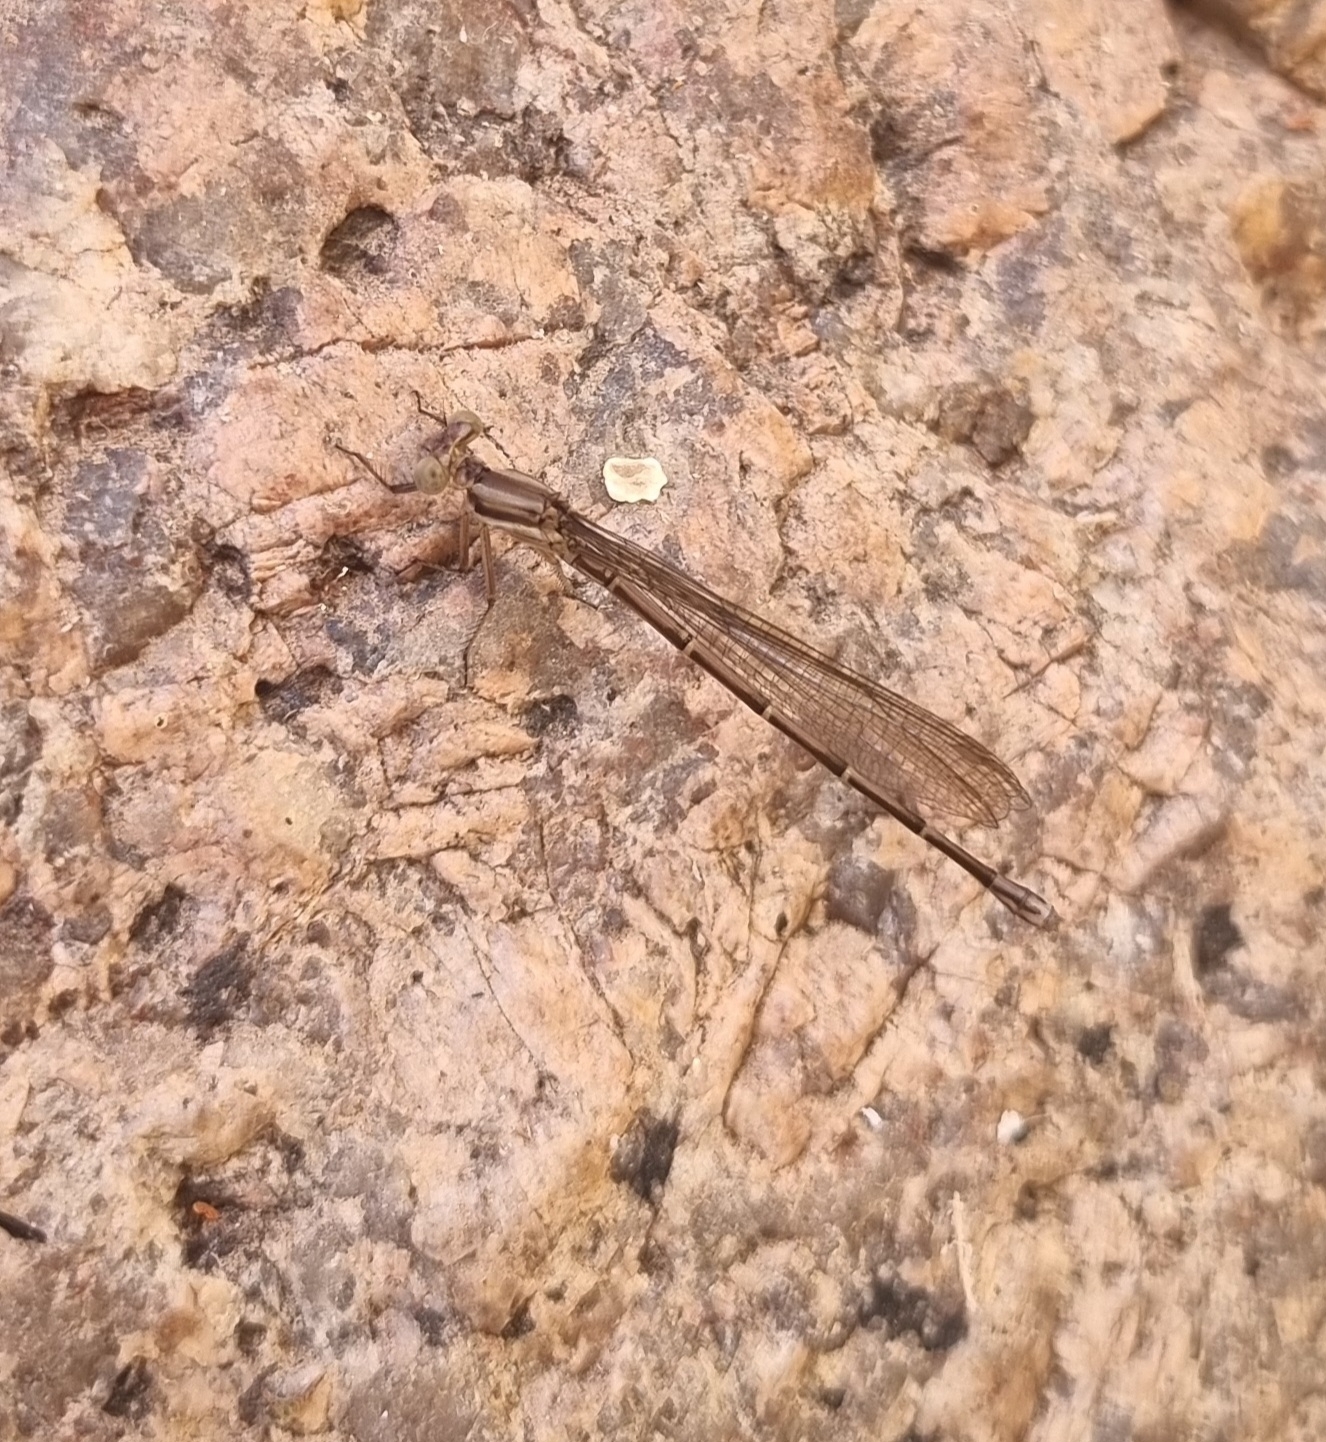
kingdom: Animalia
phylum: Arthropoda
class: Insecta
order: Odonata
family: Coenagrionidae
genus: Argia
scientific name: Argia joergenseni
